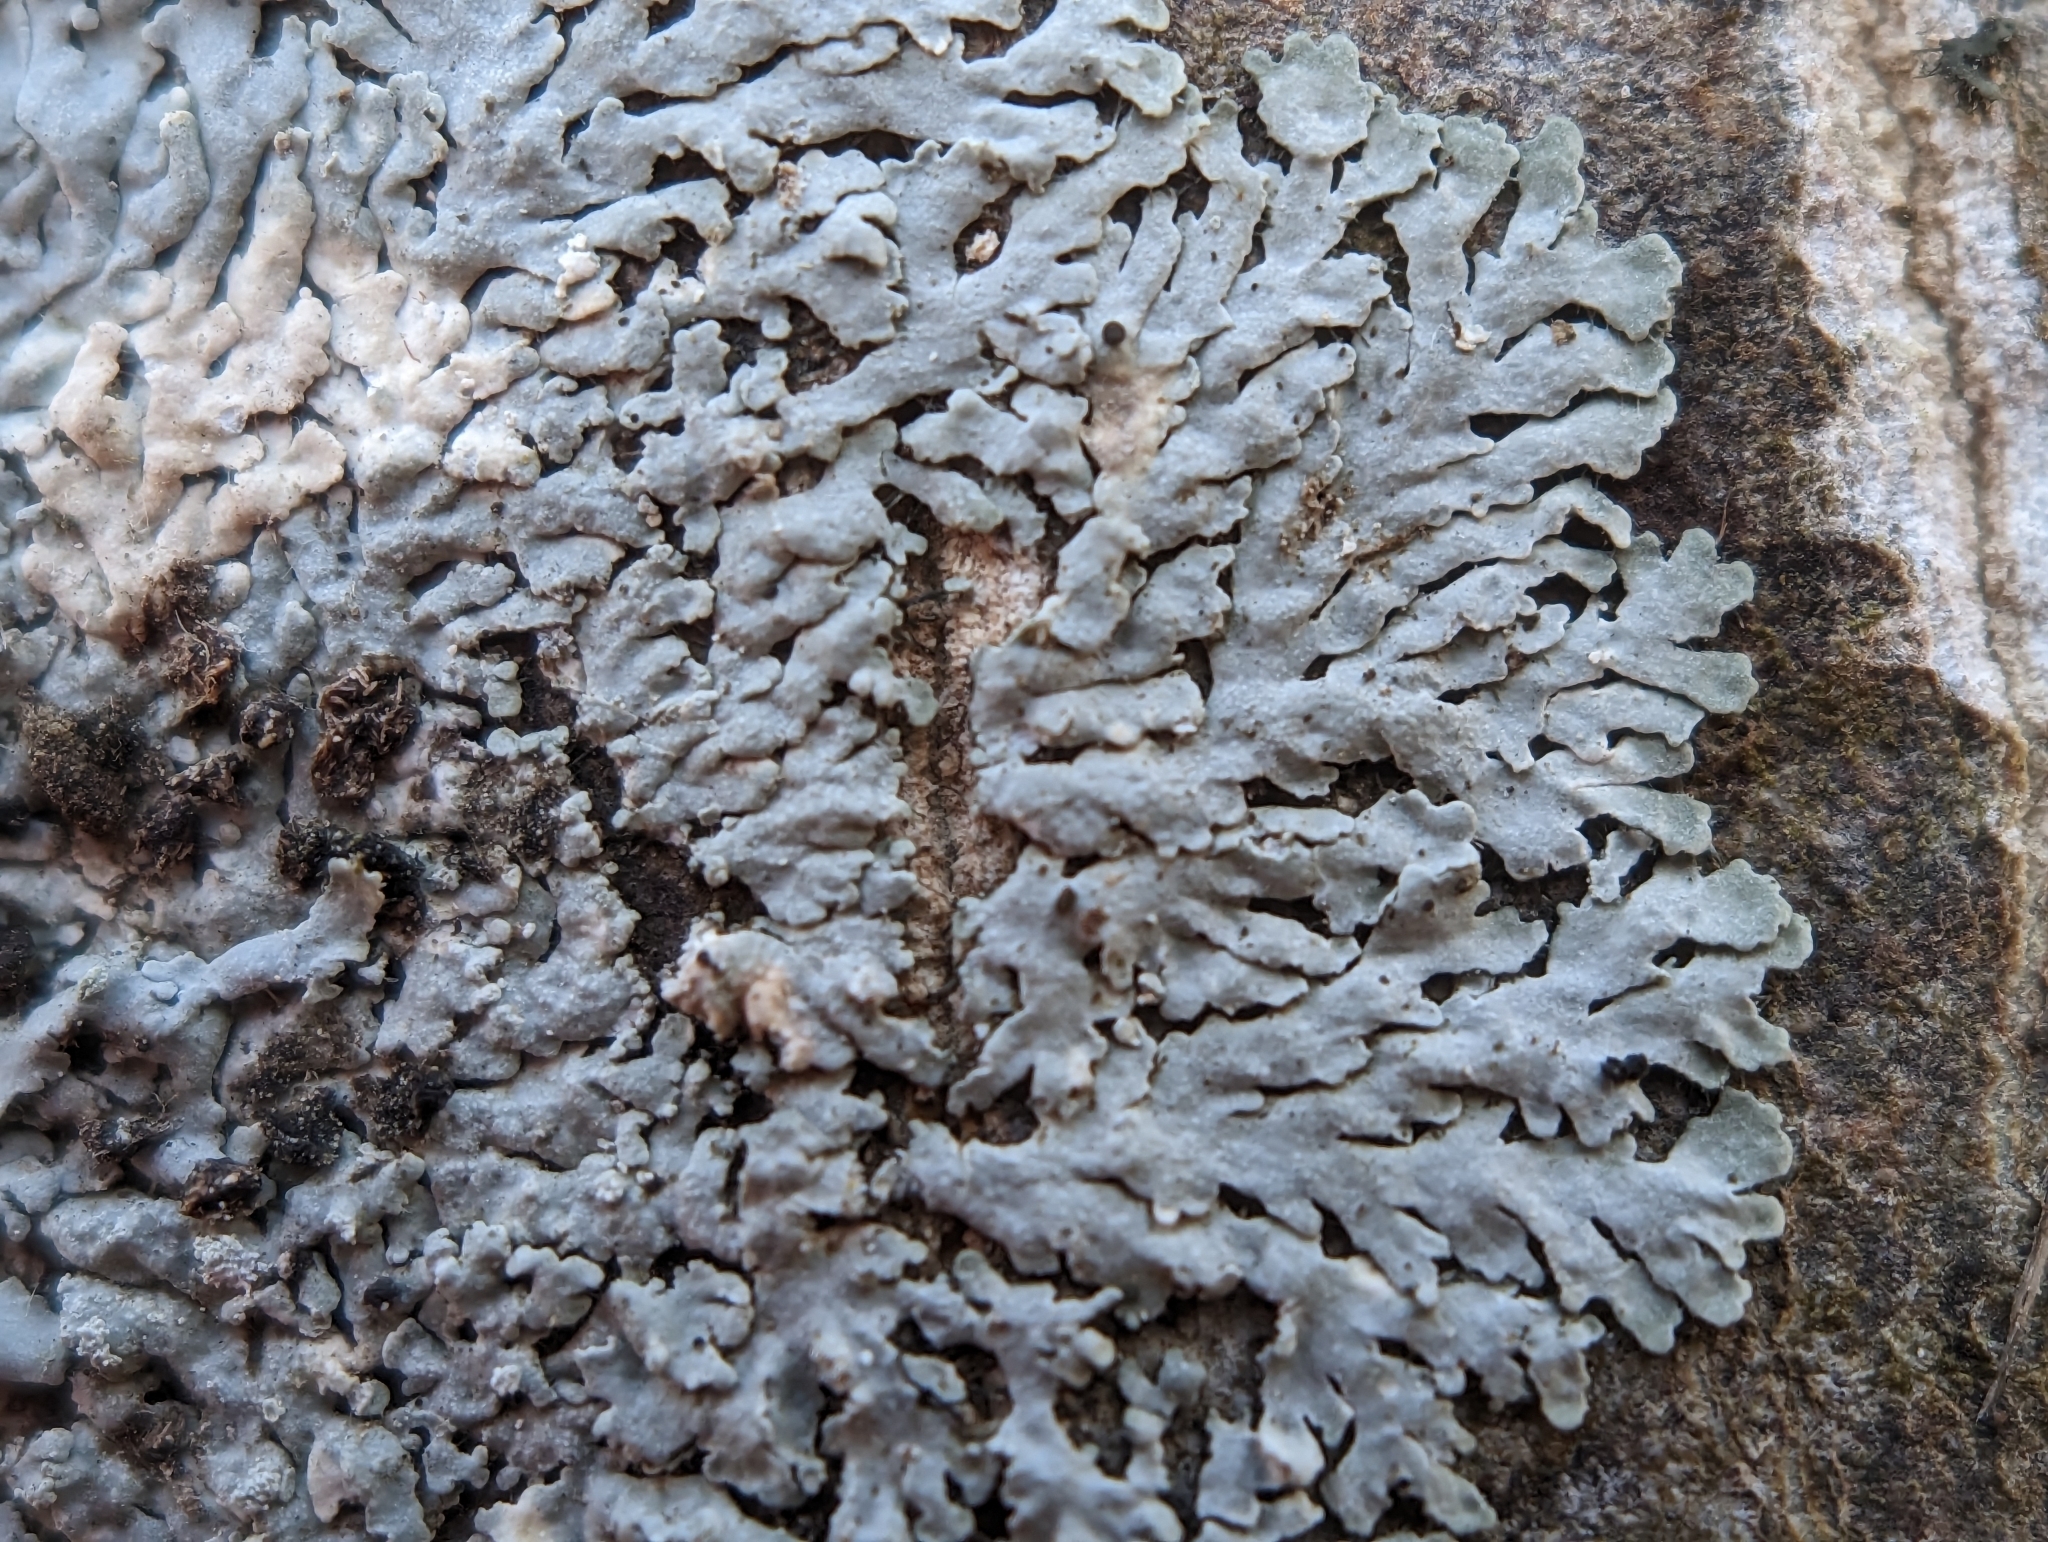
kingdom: Fungi
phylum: Ascomycota
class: Lecanoromycetes
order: Caliciales
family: Physciaceae
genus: Physcia
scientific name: Physcia americana
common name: American rosette lichen
